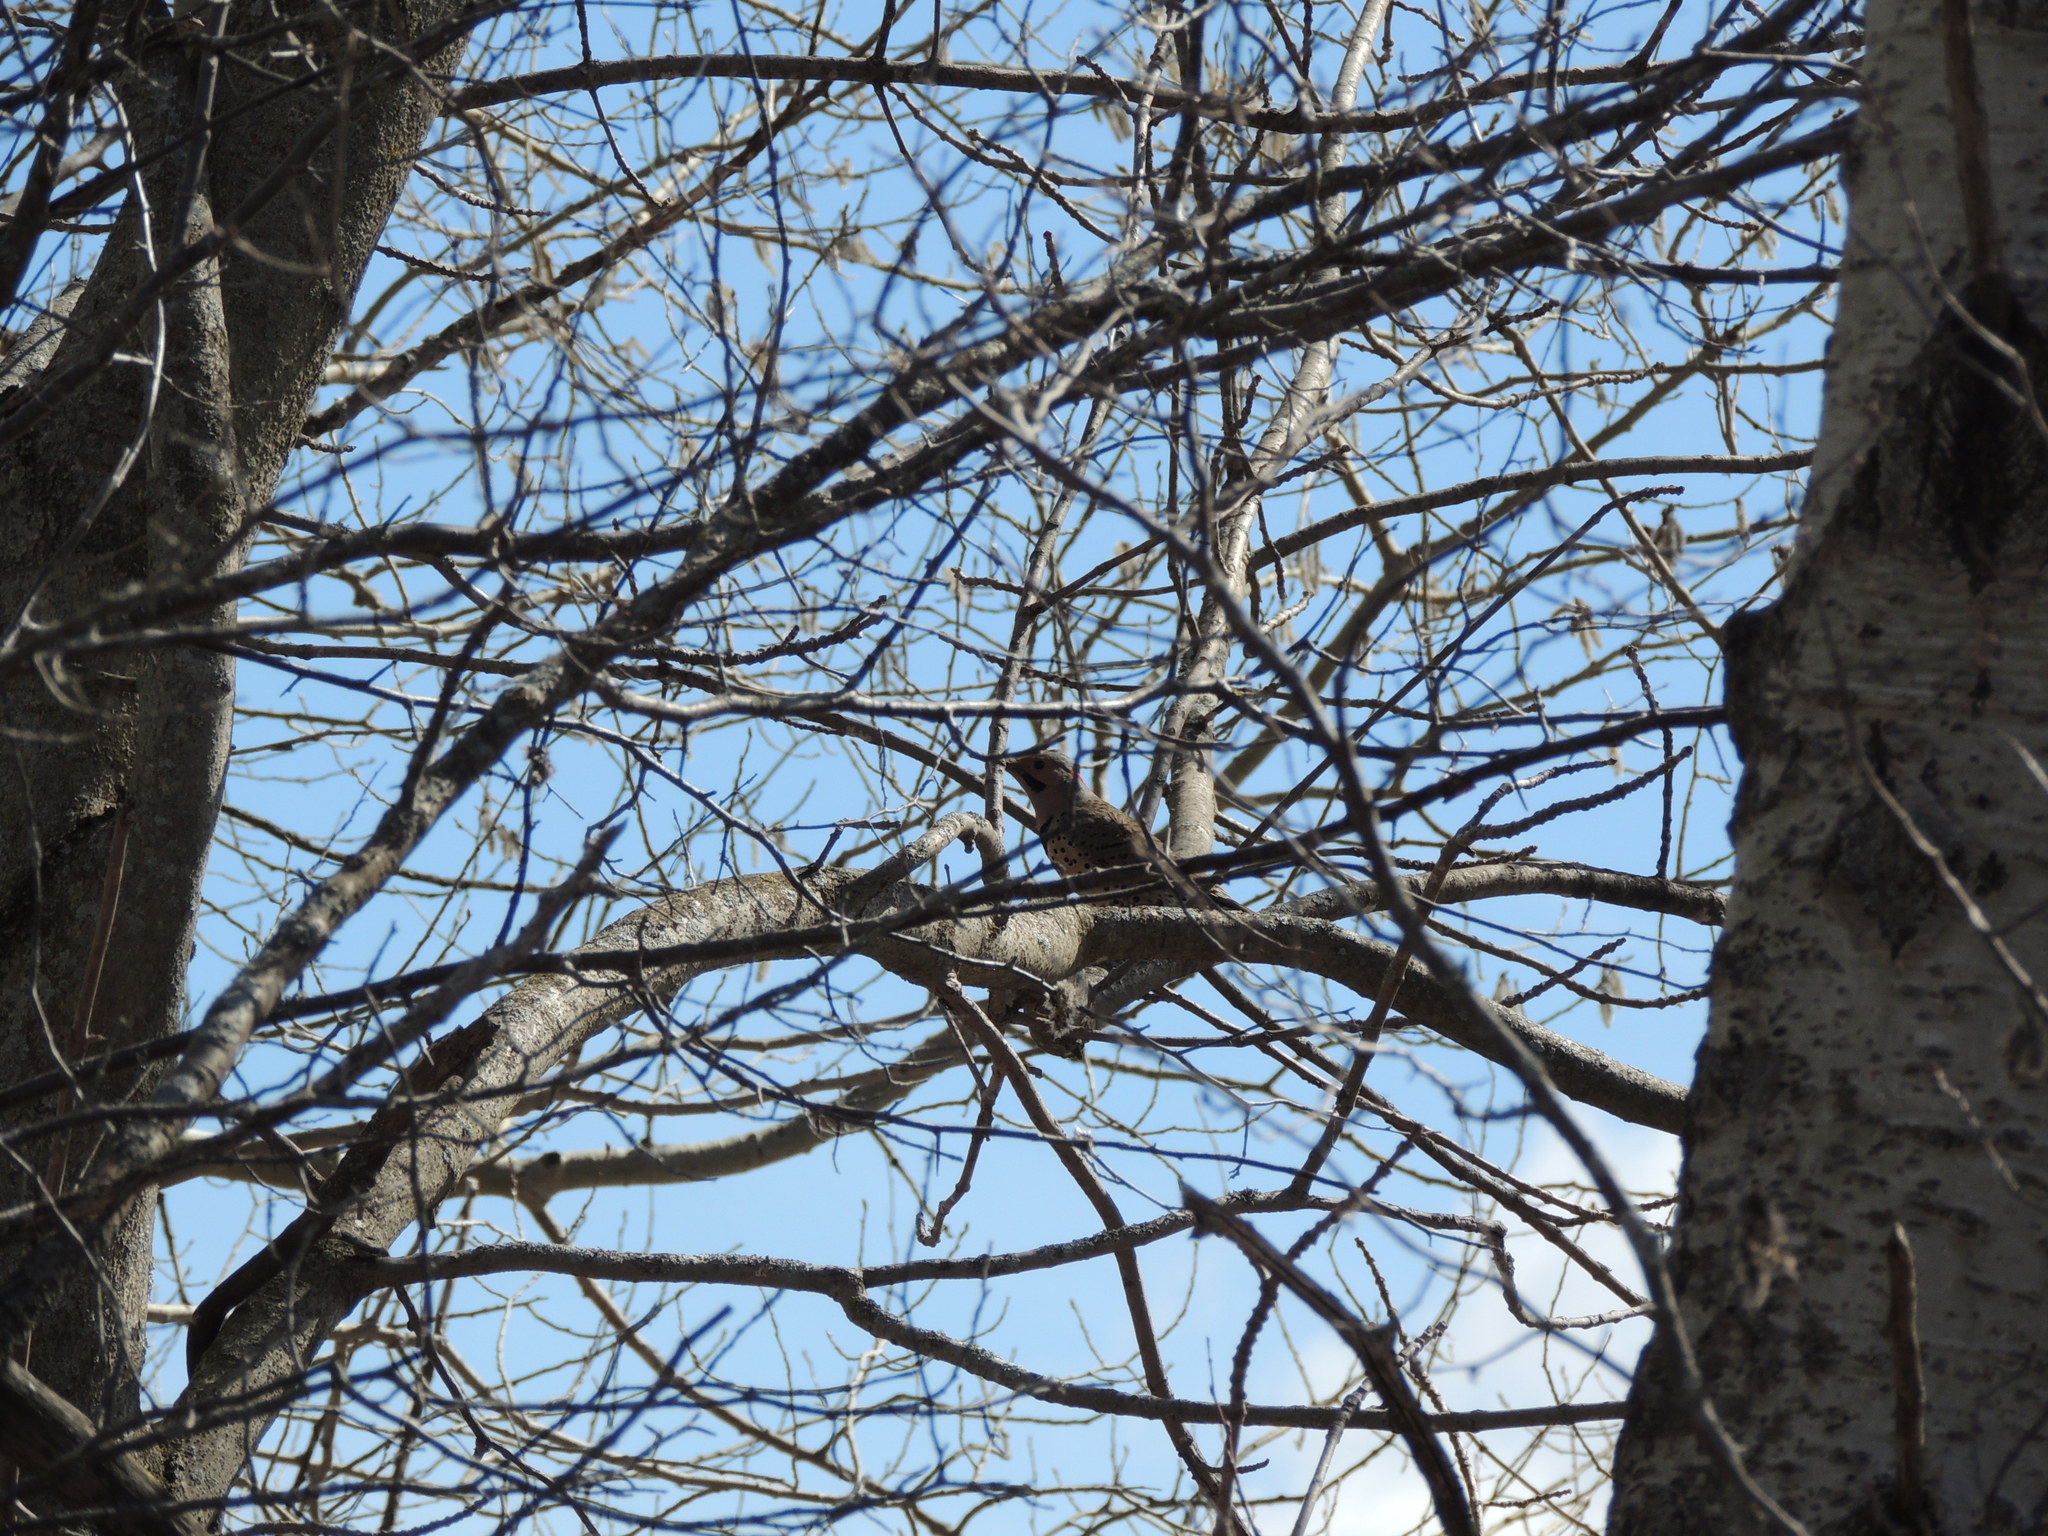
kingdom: Animalia
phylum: Chordata
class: Aves
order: Piciformes
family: Picidae
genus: Colaptes
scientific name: Colaptes auratus
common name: Northern flicker
